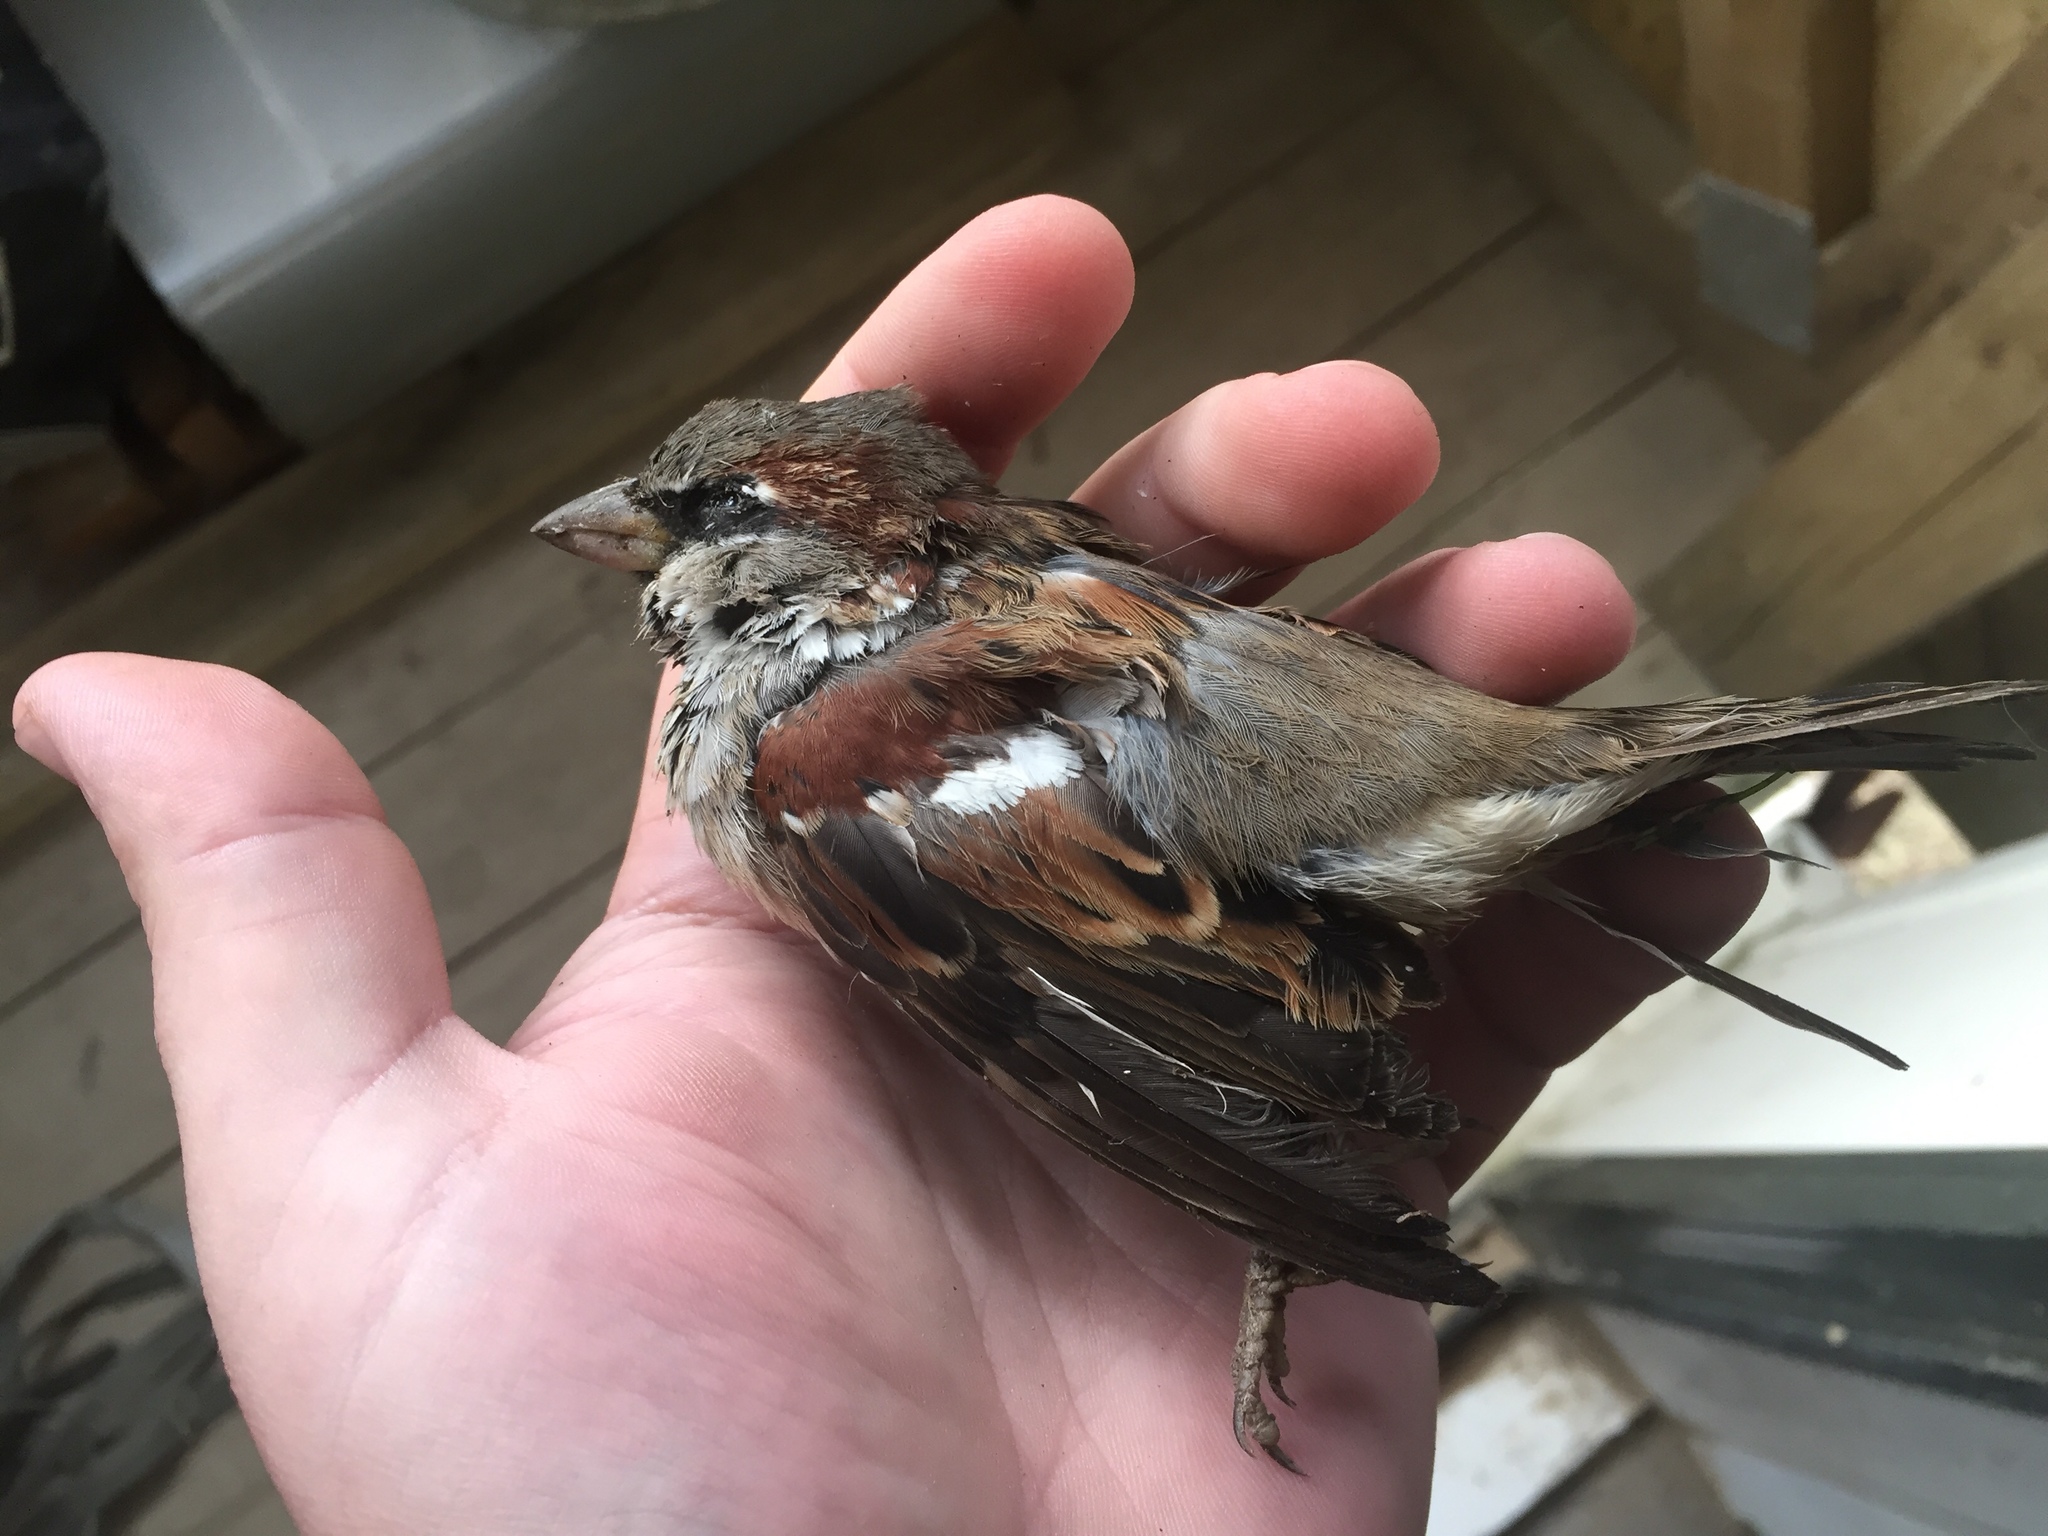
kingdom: Animalia
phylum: Chordata
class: Aves
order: Passeriformes
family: Passeridae
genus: Passer
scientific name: Passer domesticus
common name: House sparrow
